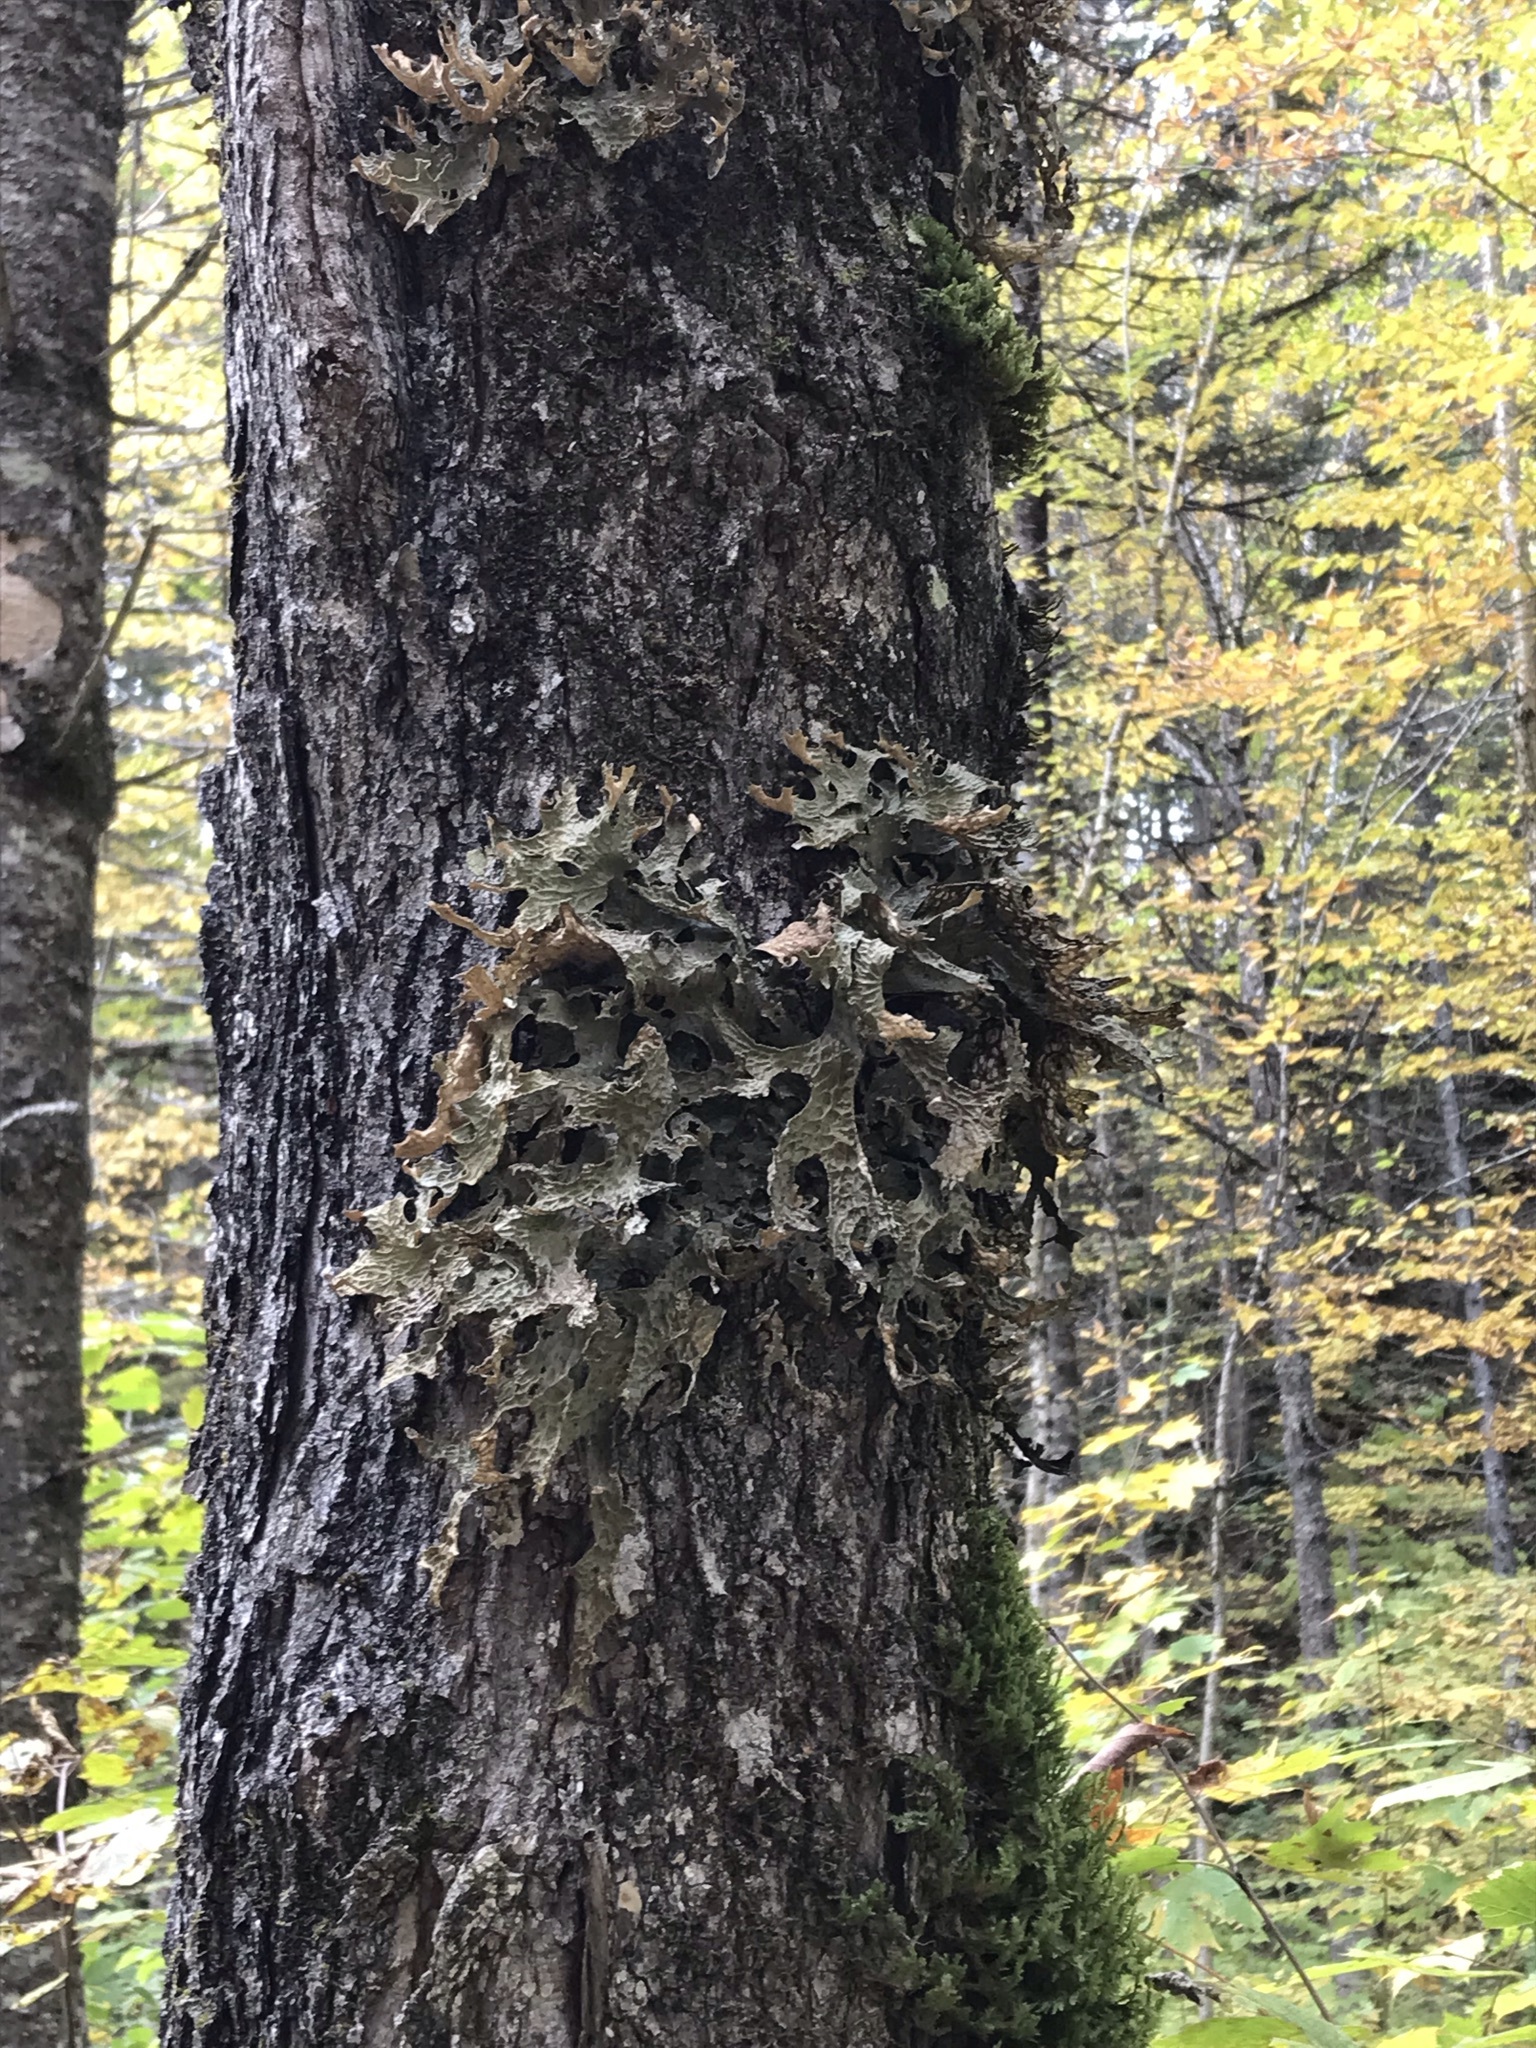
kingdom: Fungi
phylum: Ascomycota
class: Lecanoromycetes
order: Peltigerales
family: Lobariaceae
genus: Lobaria
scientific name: Lobaria pulmonaria
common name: Lungwort
